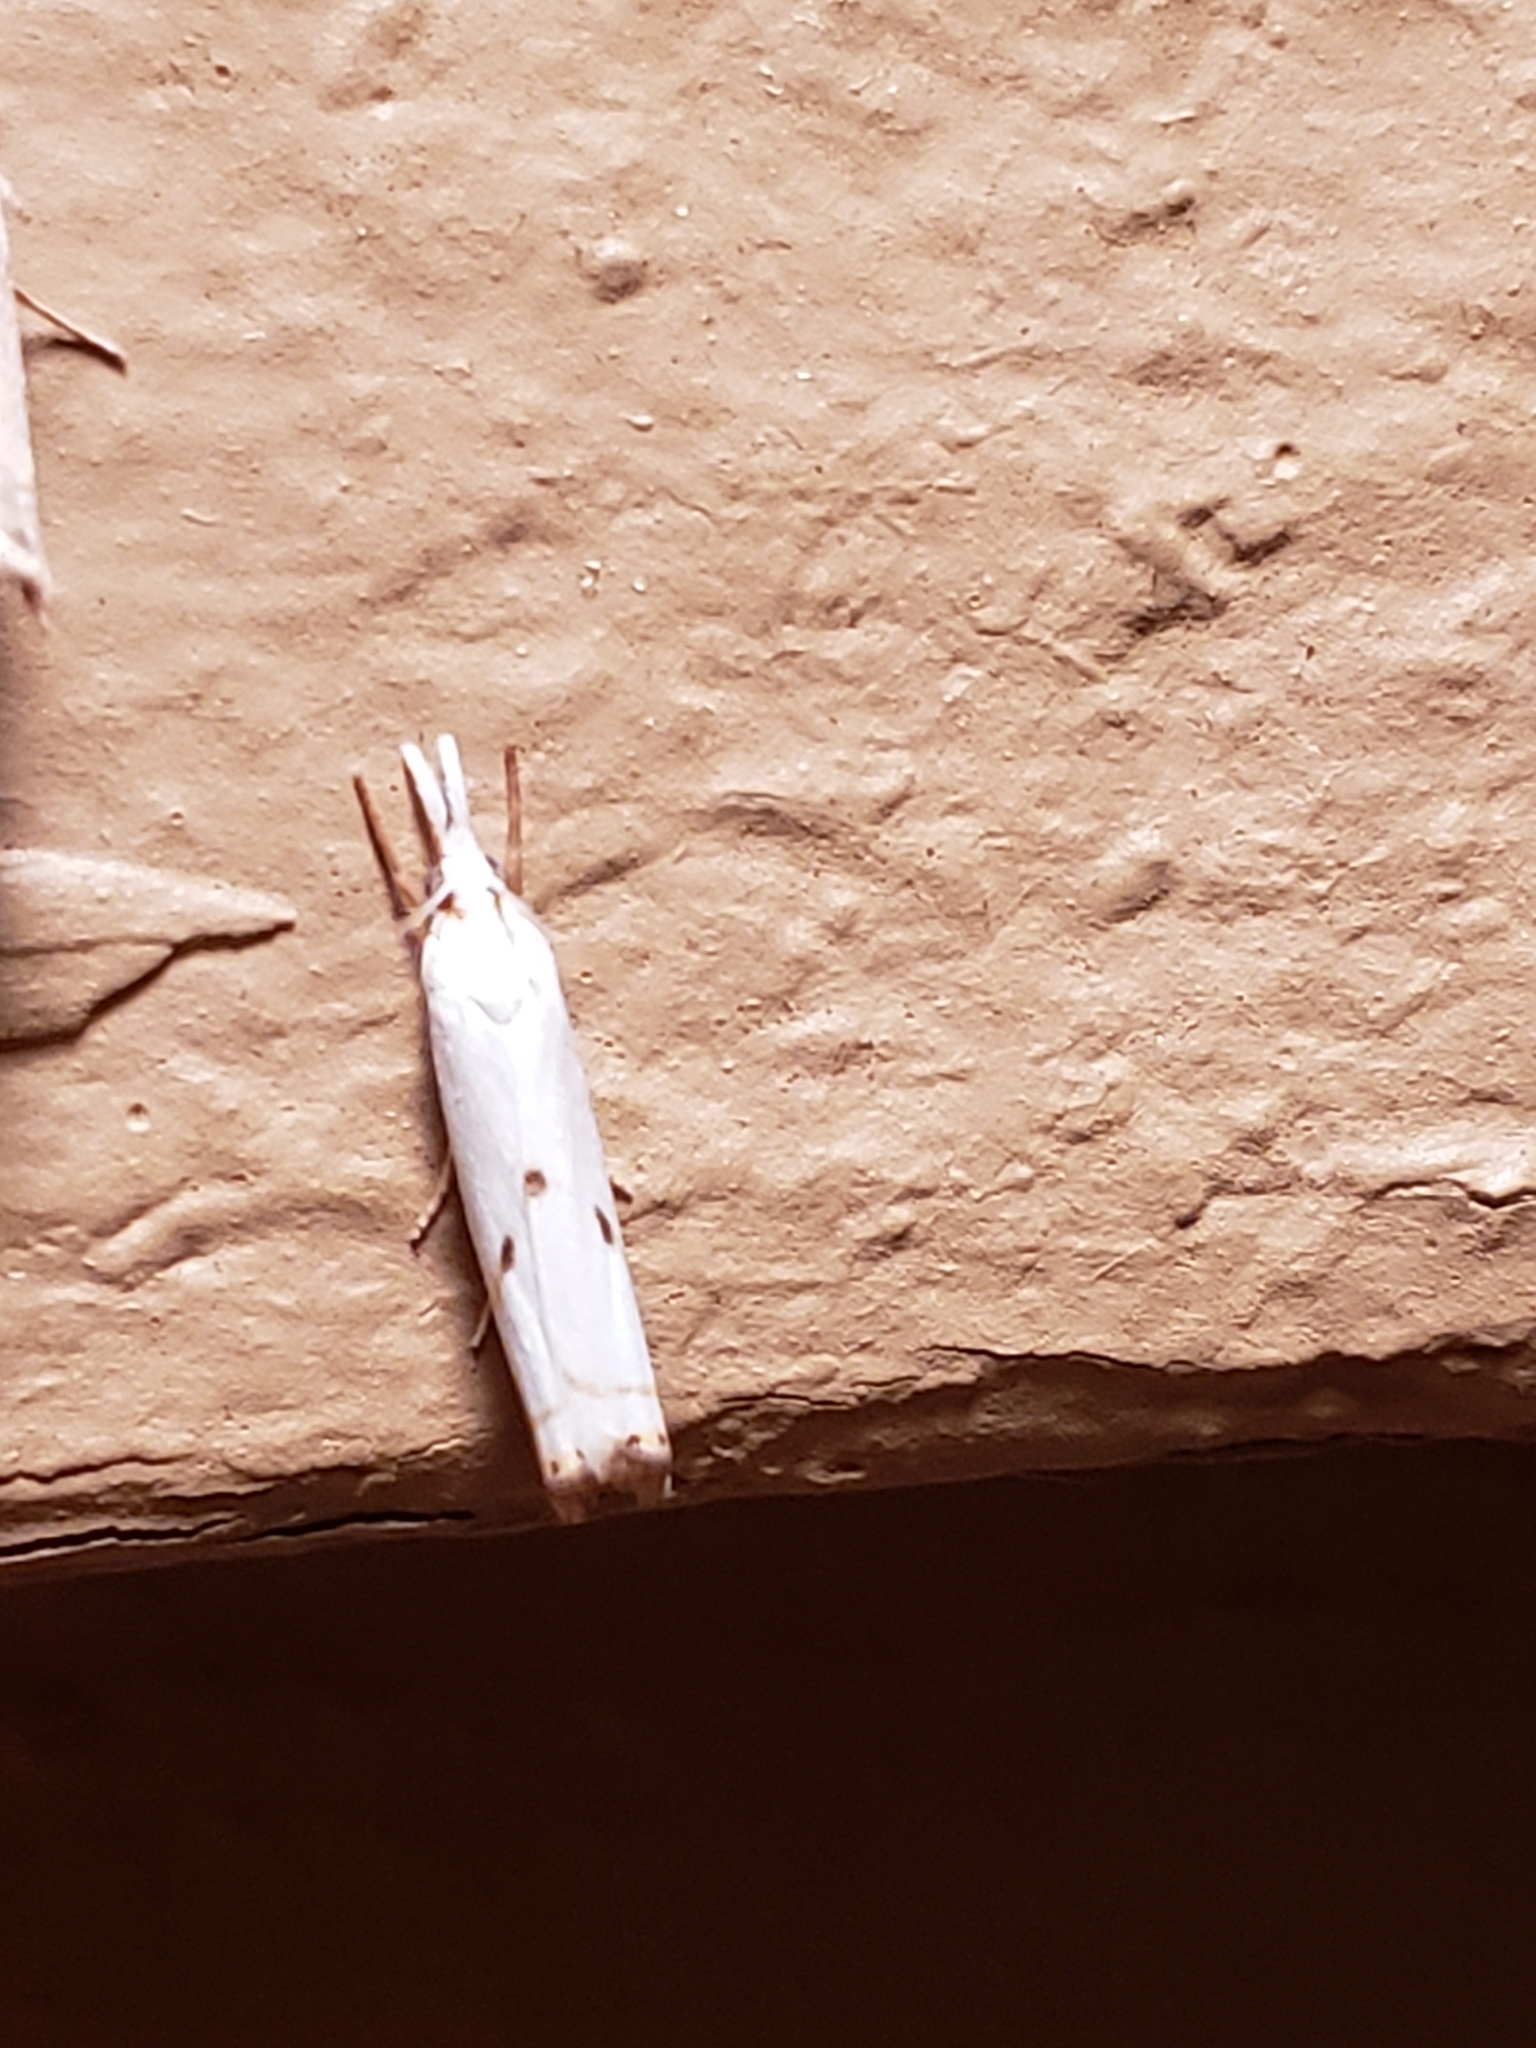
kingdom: Animalia
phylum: Arthropoda
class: Insecta
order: Lepidoptera
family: Crambidae
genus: Microcrambus
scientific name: Microcrambus biguttellus
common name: Gold-stripe grass-veneer moth
